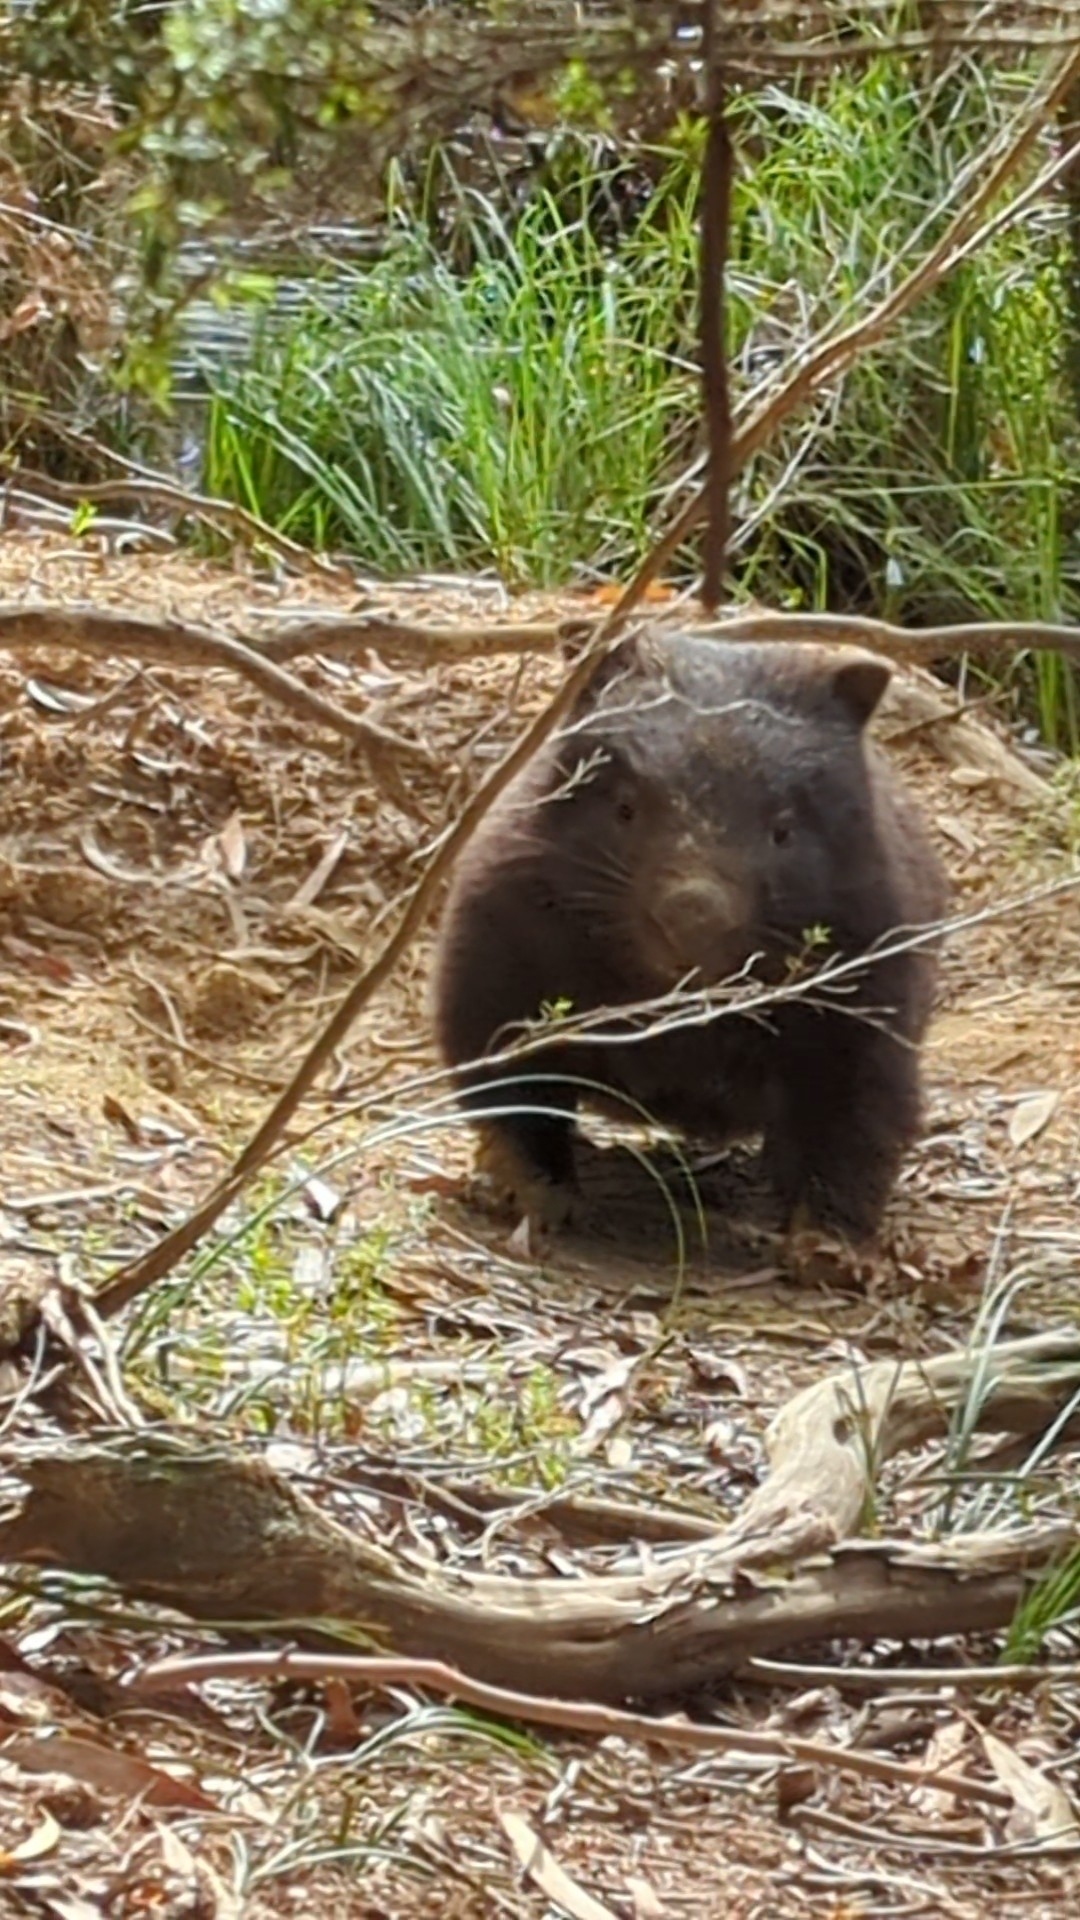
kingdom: Animalia
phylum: Chordata
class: Mammalia
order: Diprotodontia
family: Vombatidae
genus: Vombatus
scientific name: Vombatus ursinus
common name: Common wombat
